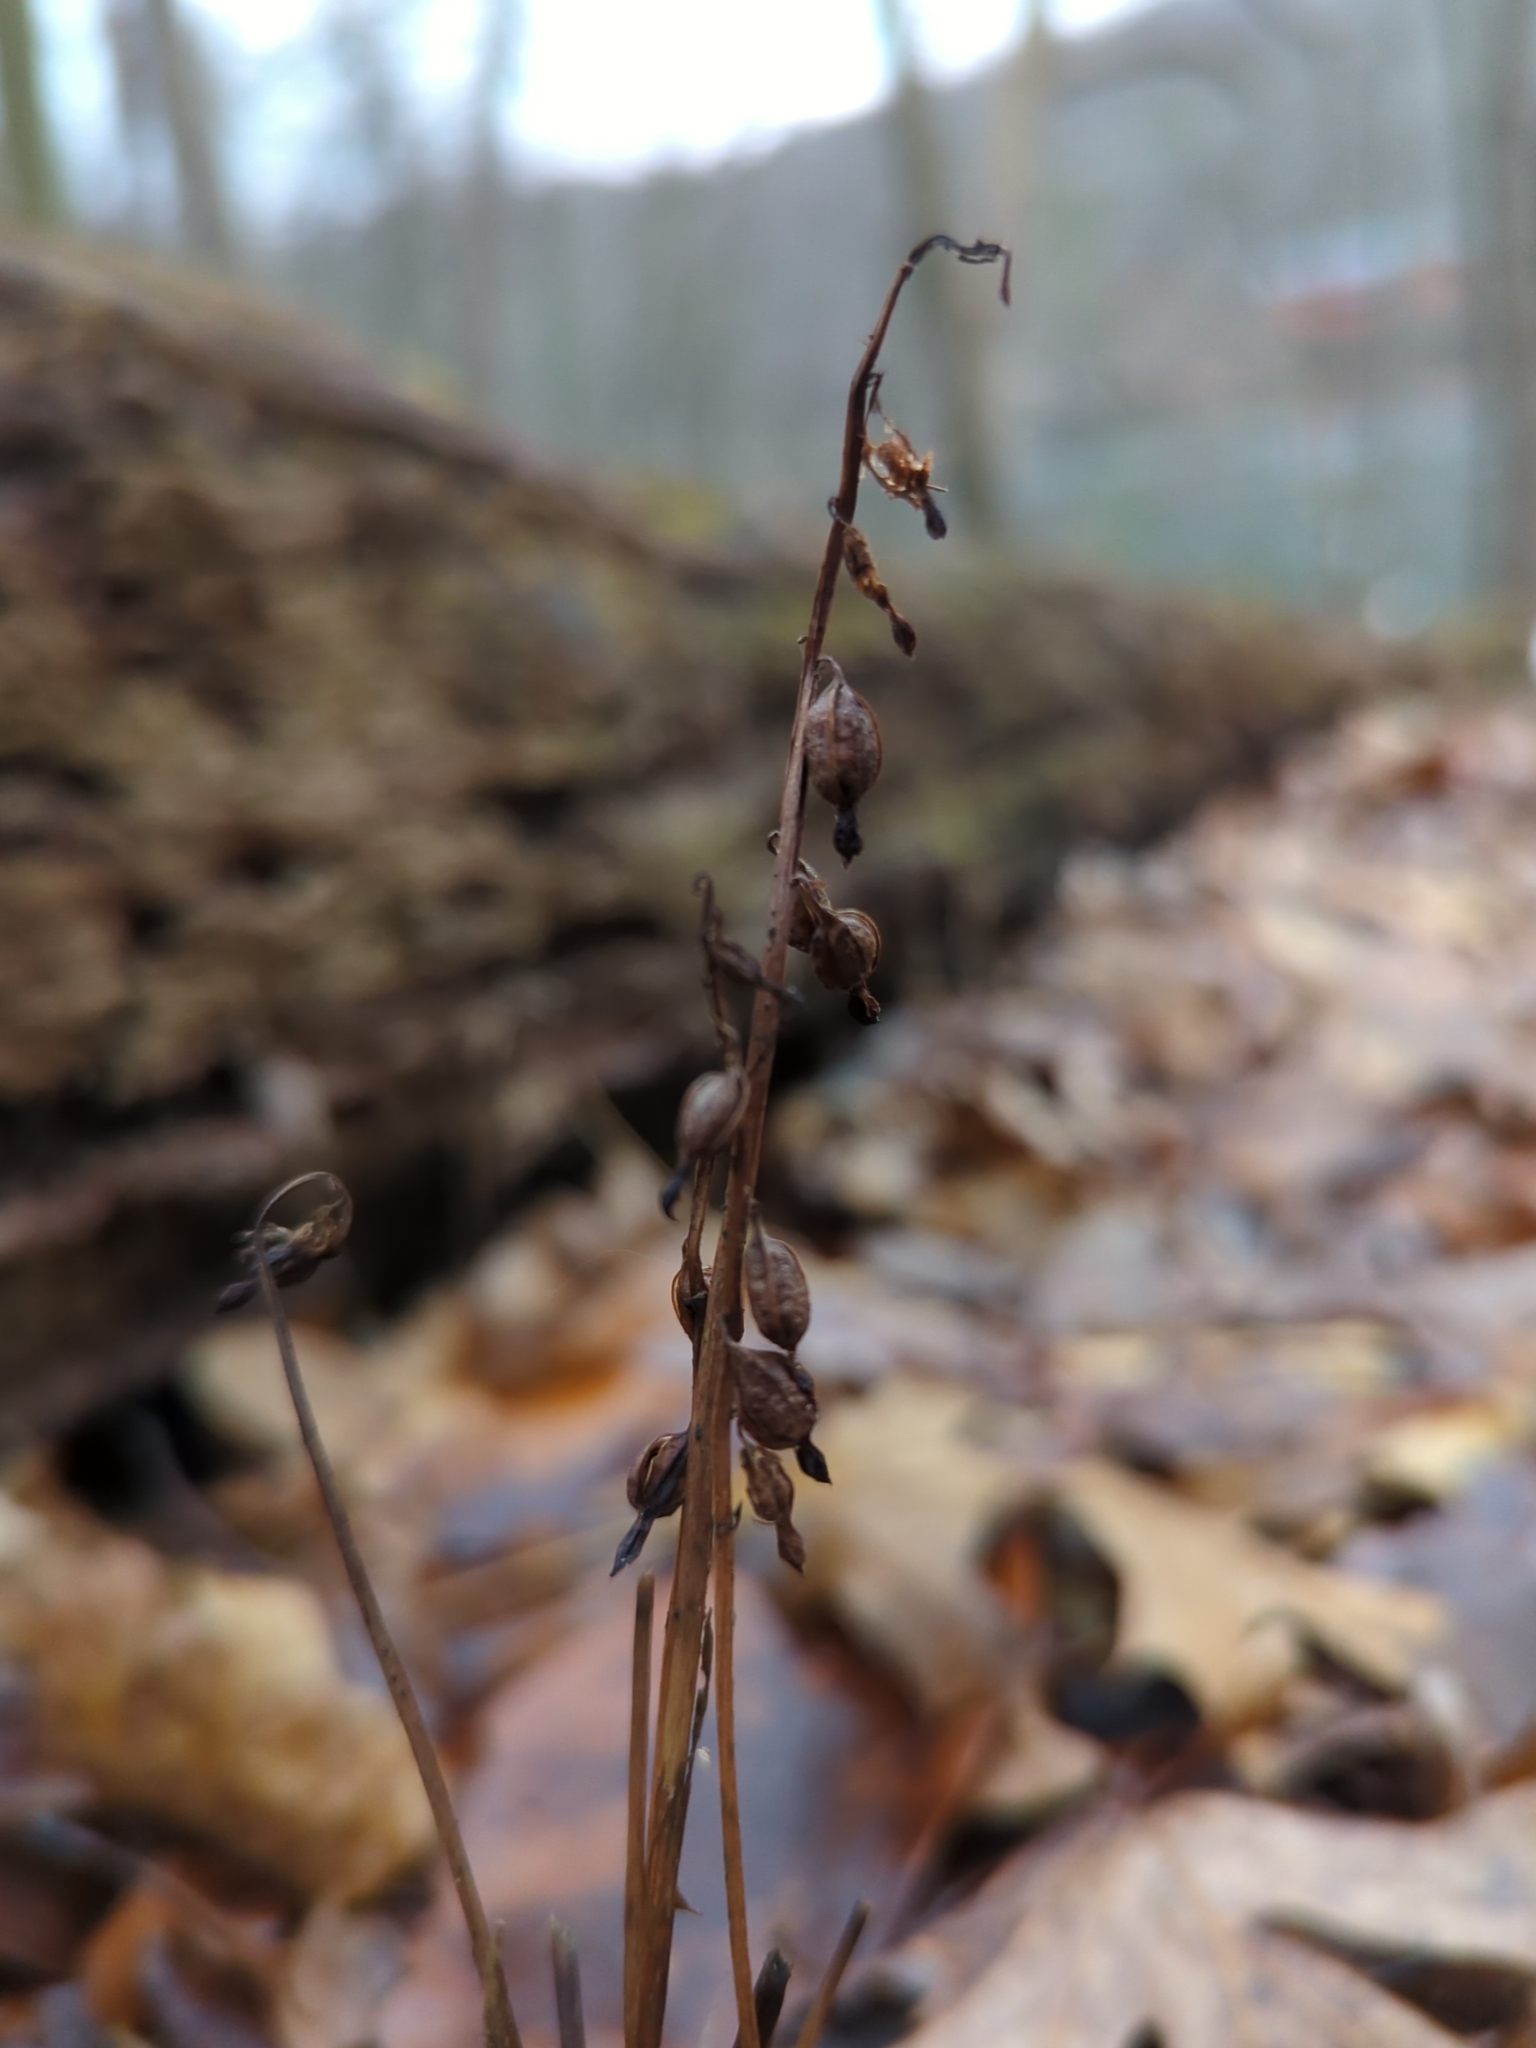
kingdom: Plantae
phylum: Tracheophyta
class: Liliopsida
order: Asparagales
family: Orchidaceae
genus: Corallorhiza
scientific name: Corallorhiza odontorhiza
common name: Autumn coralroot
